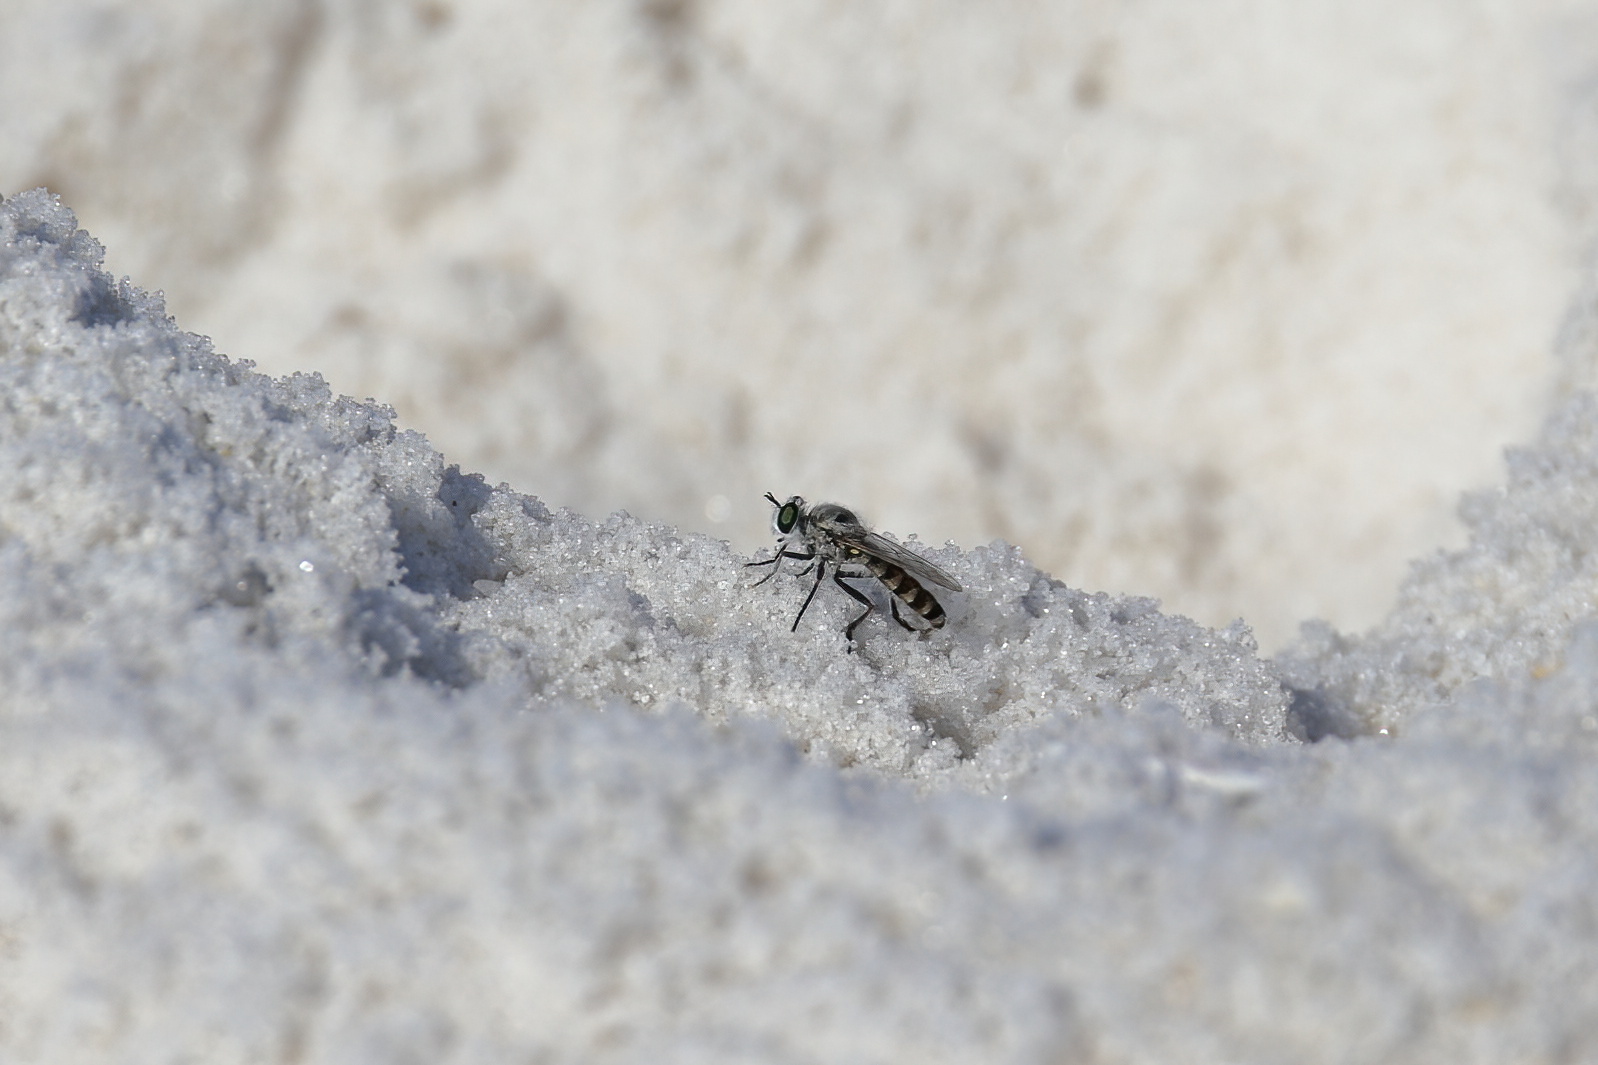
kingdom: Animalia
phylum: Arthropoda
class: Insecta
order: Diptera
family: Asilidae
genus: Laphystia
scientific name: Laphystia texensis
